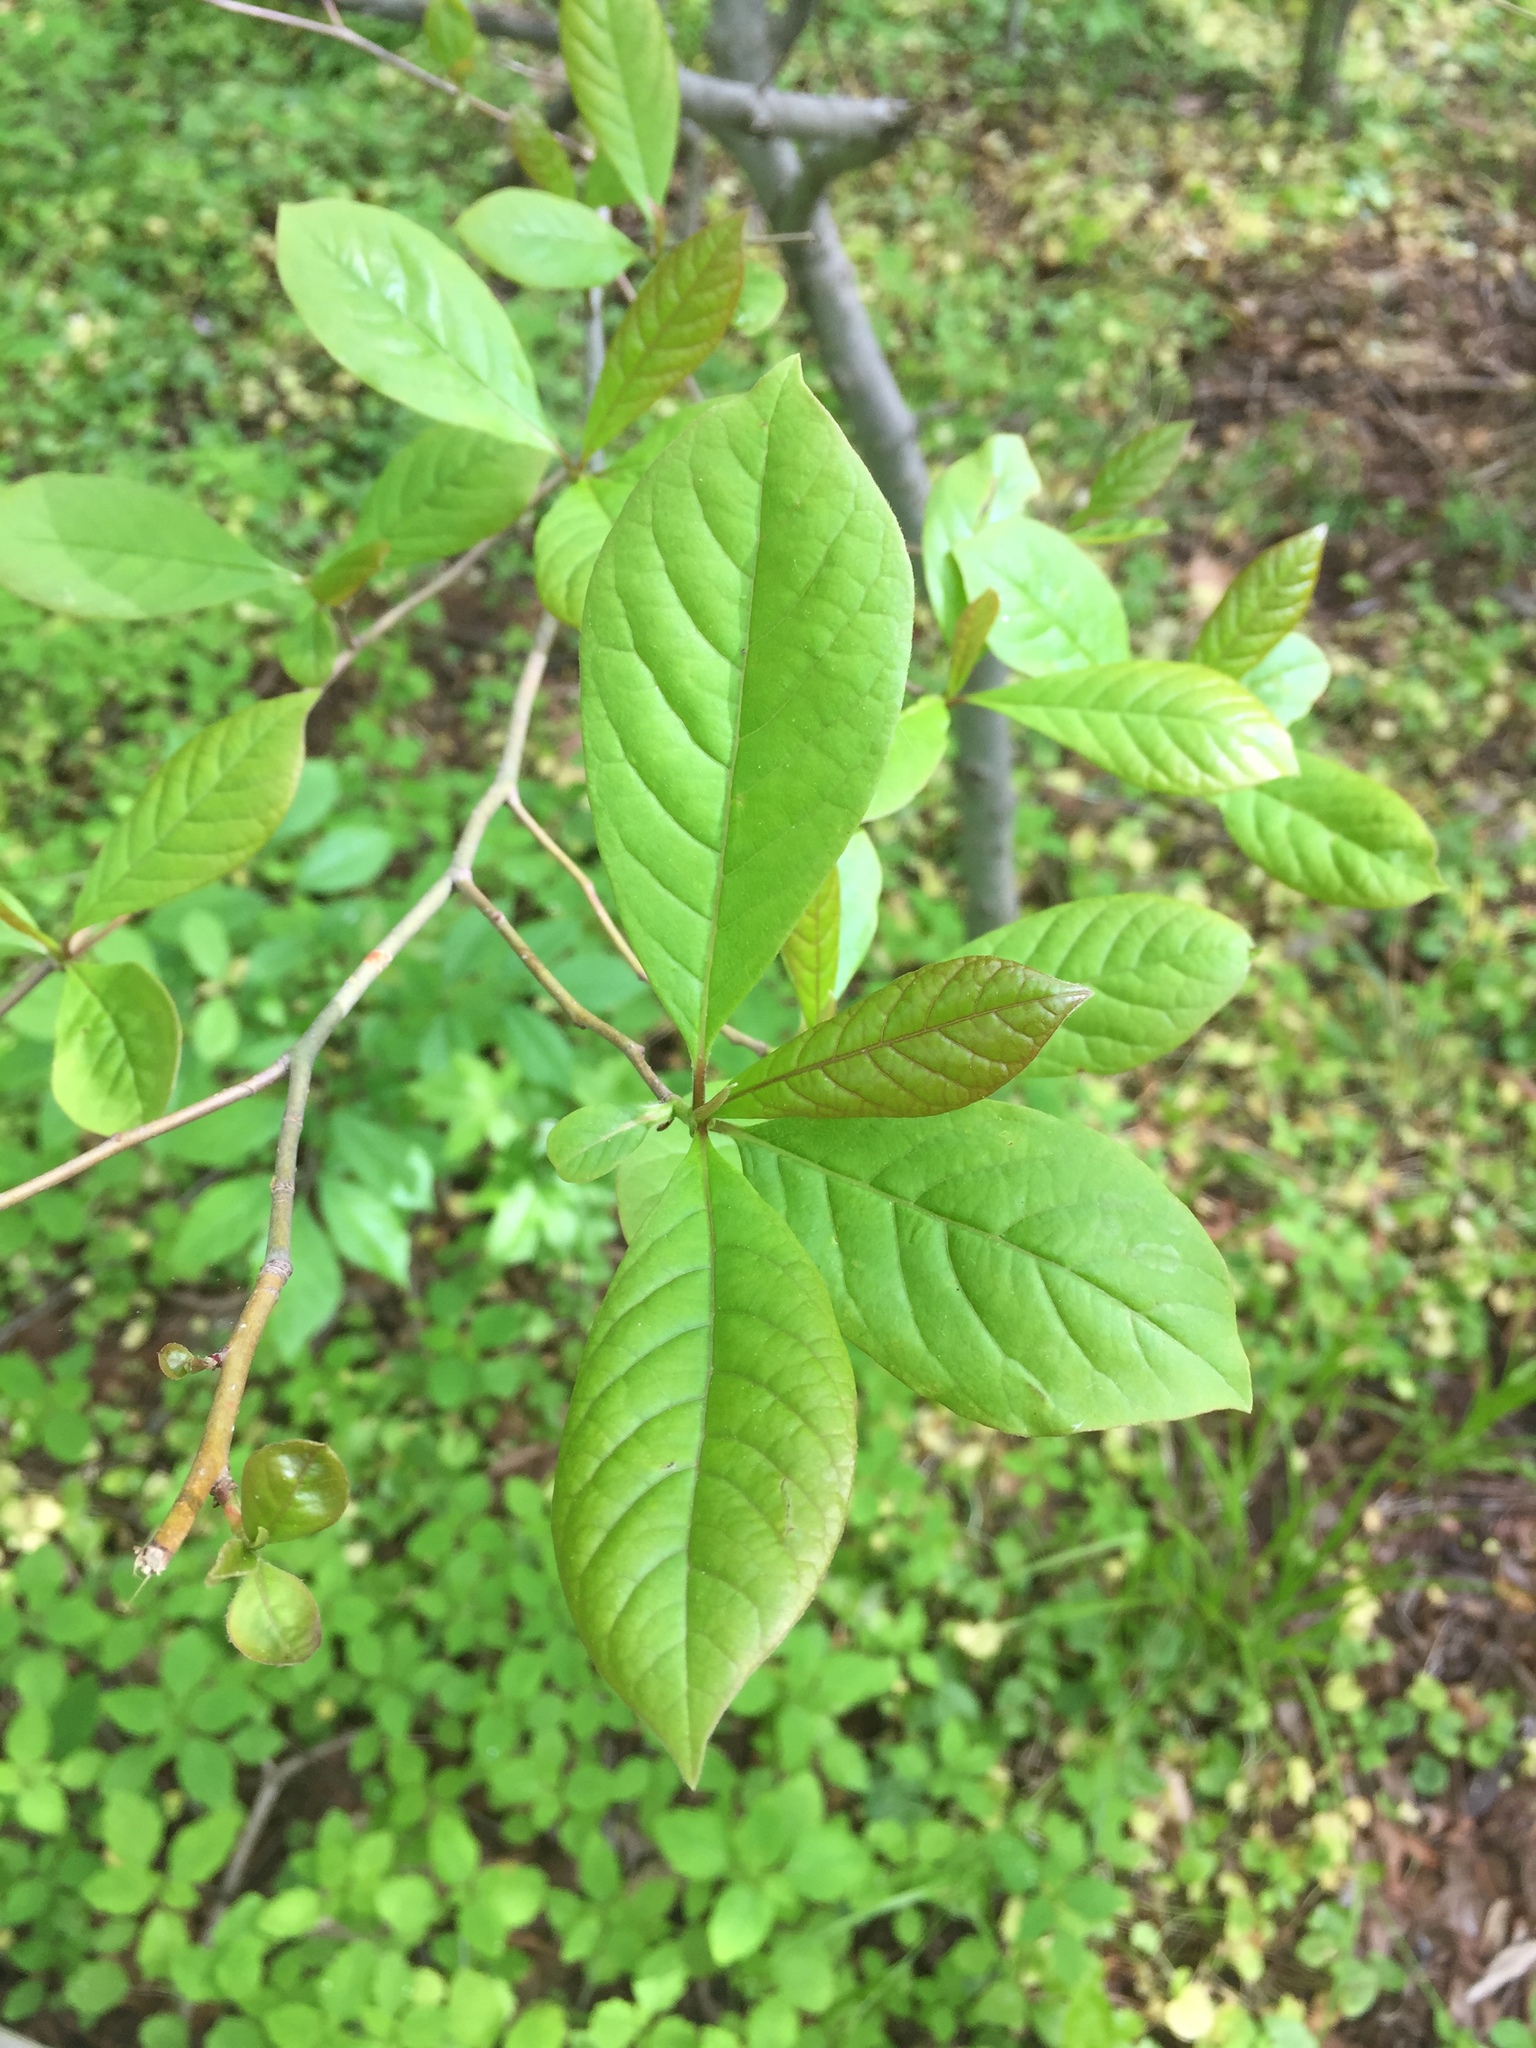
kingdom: Plantae
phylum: Tracheophyta
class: Magnoliopsida
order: Cornales
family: Nyssaceae
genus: Nyssa
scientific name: Nyssa sylvatica
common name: Black tupelo
